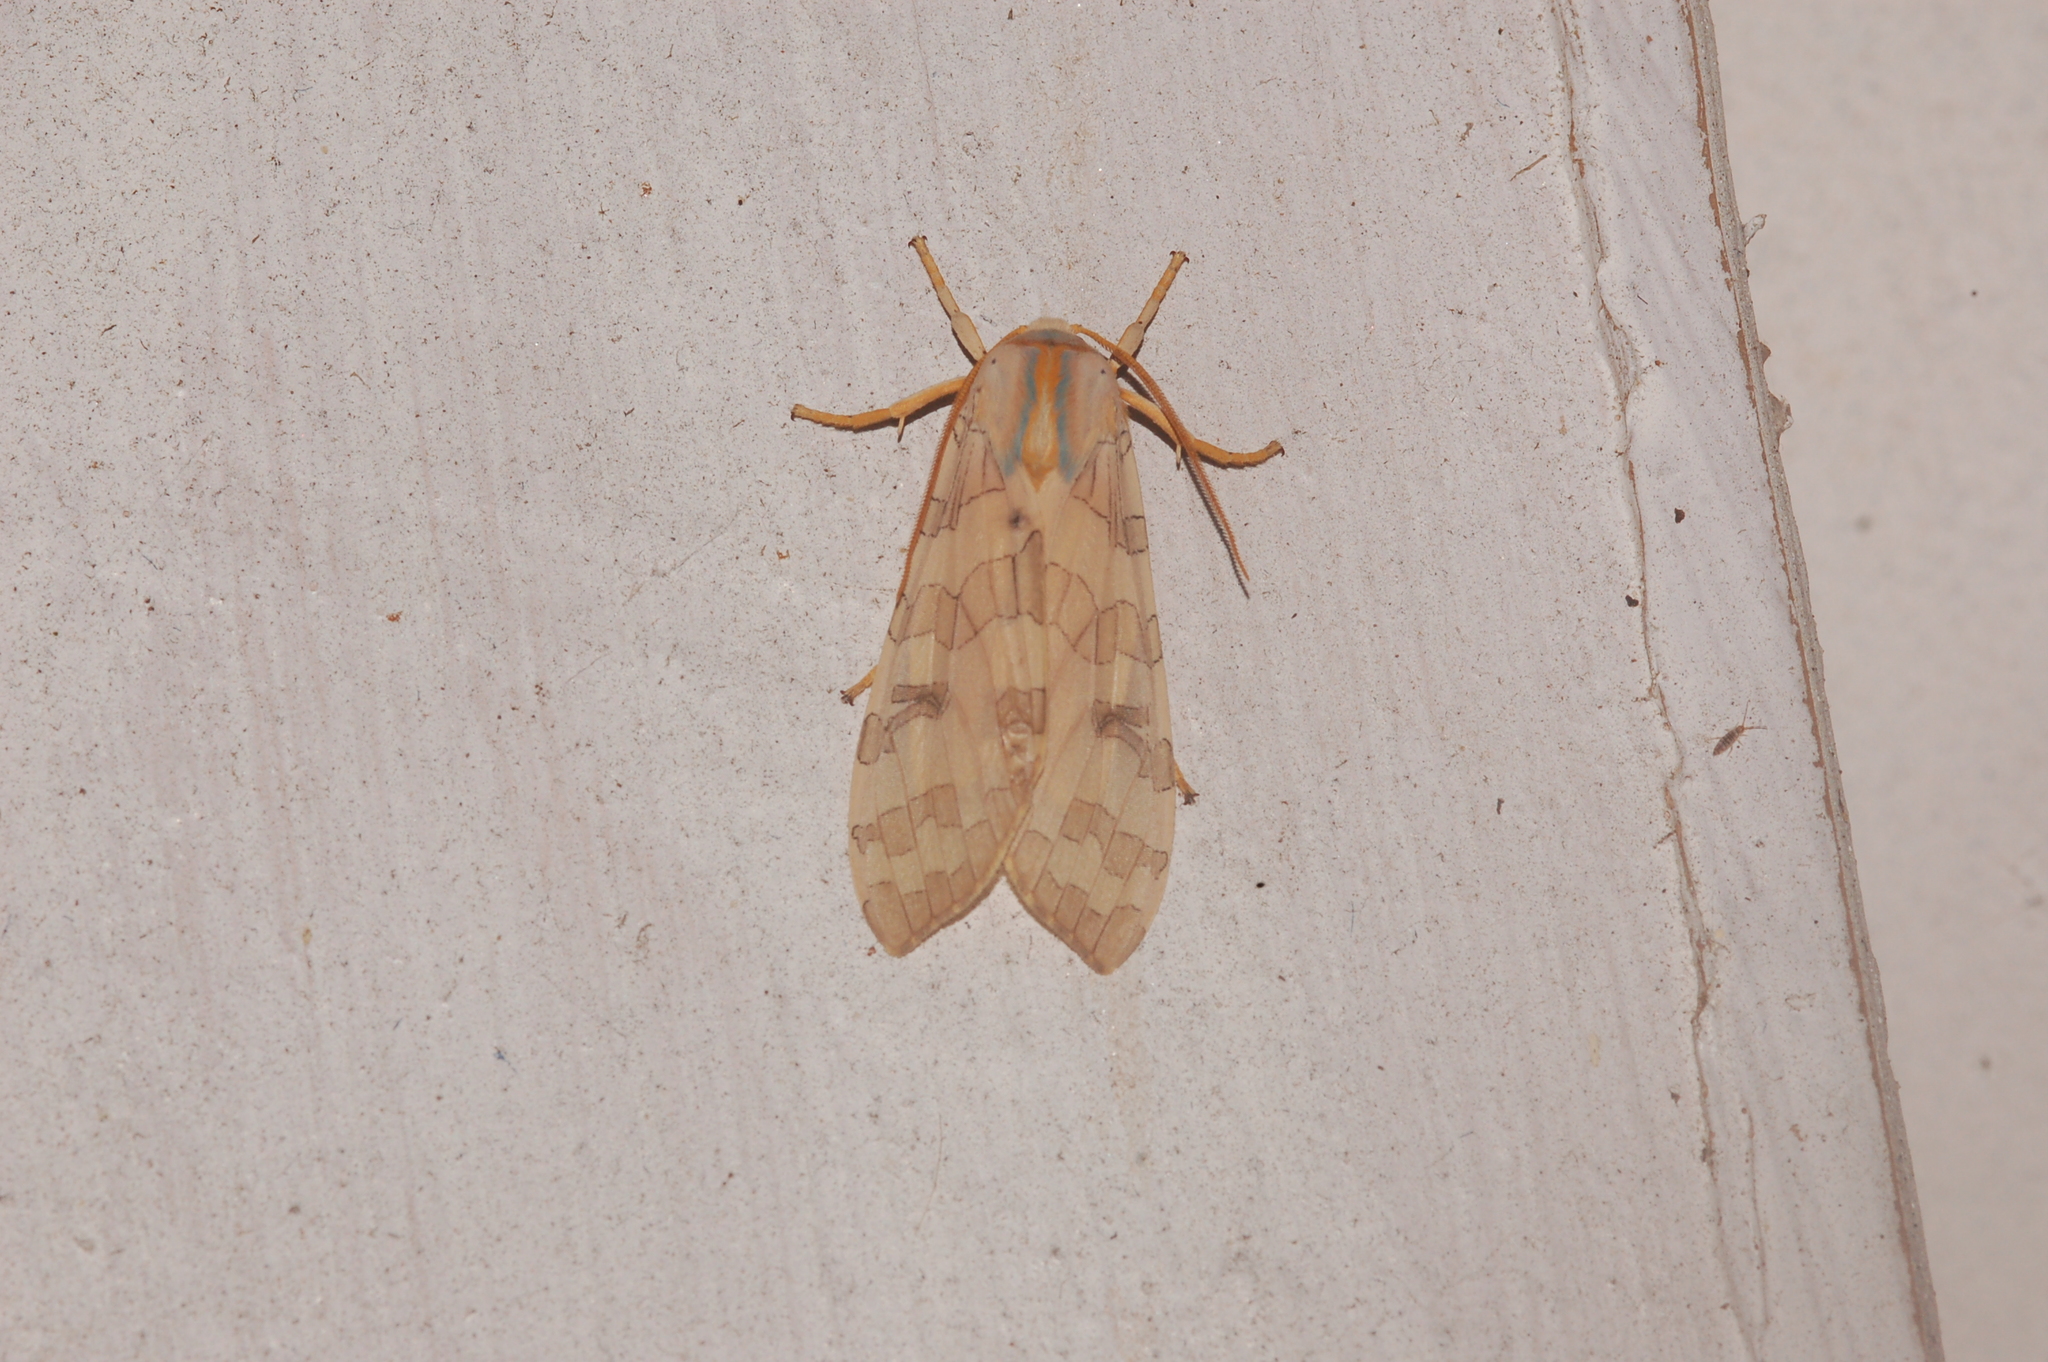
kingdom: Animalia
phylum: Arthropoda
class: Insecta
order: Lepidoptera
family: Erebidae
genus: Halysidota
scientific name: Halysidota
